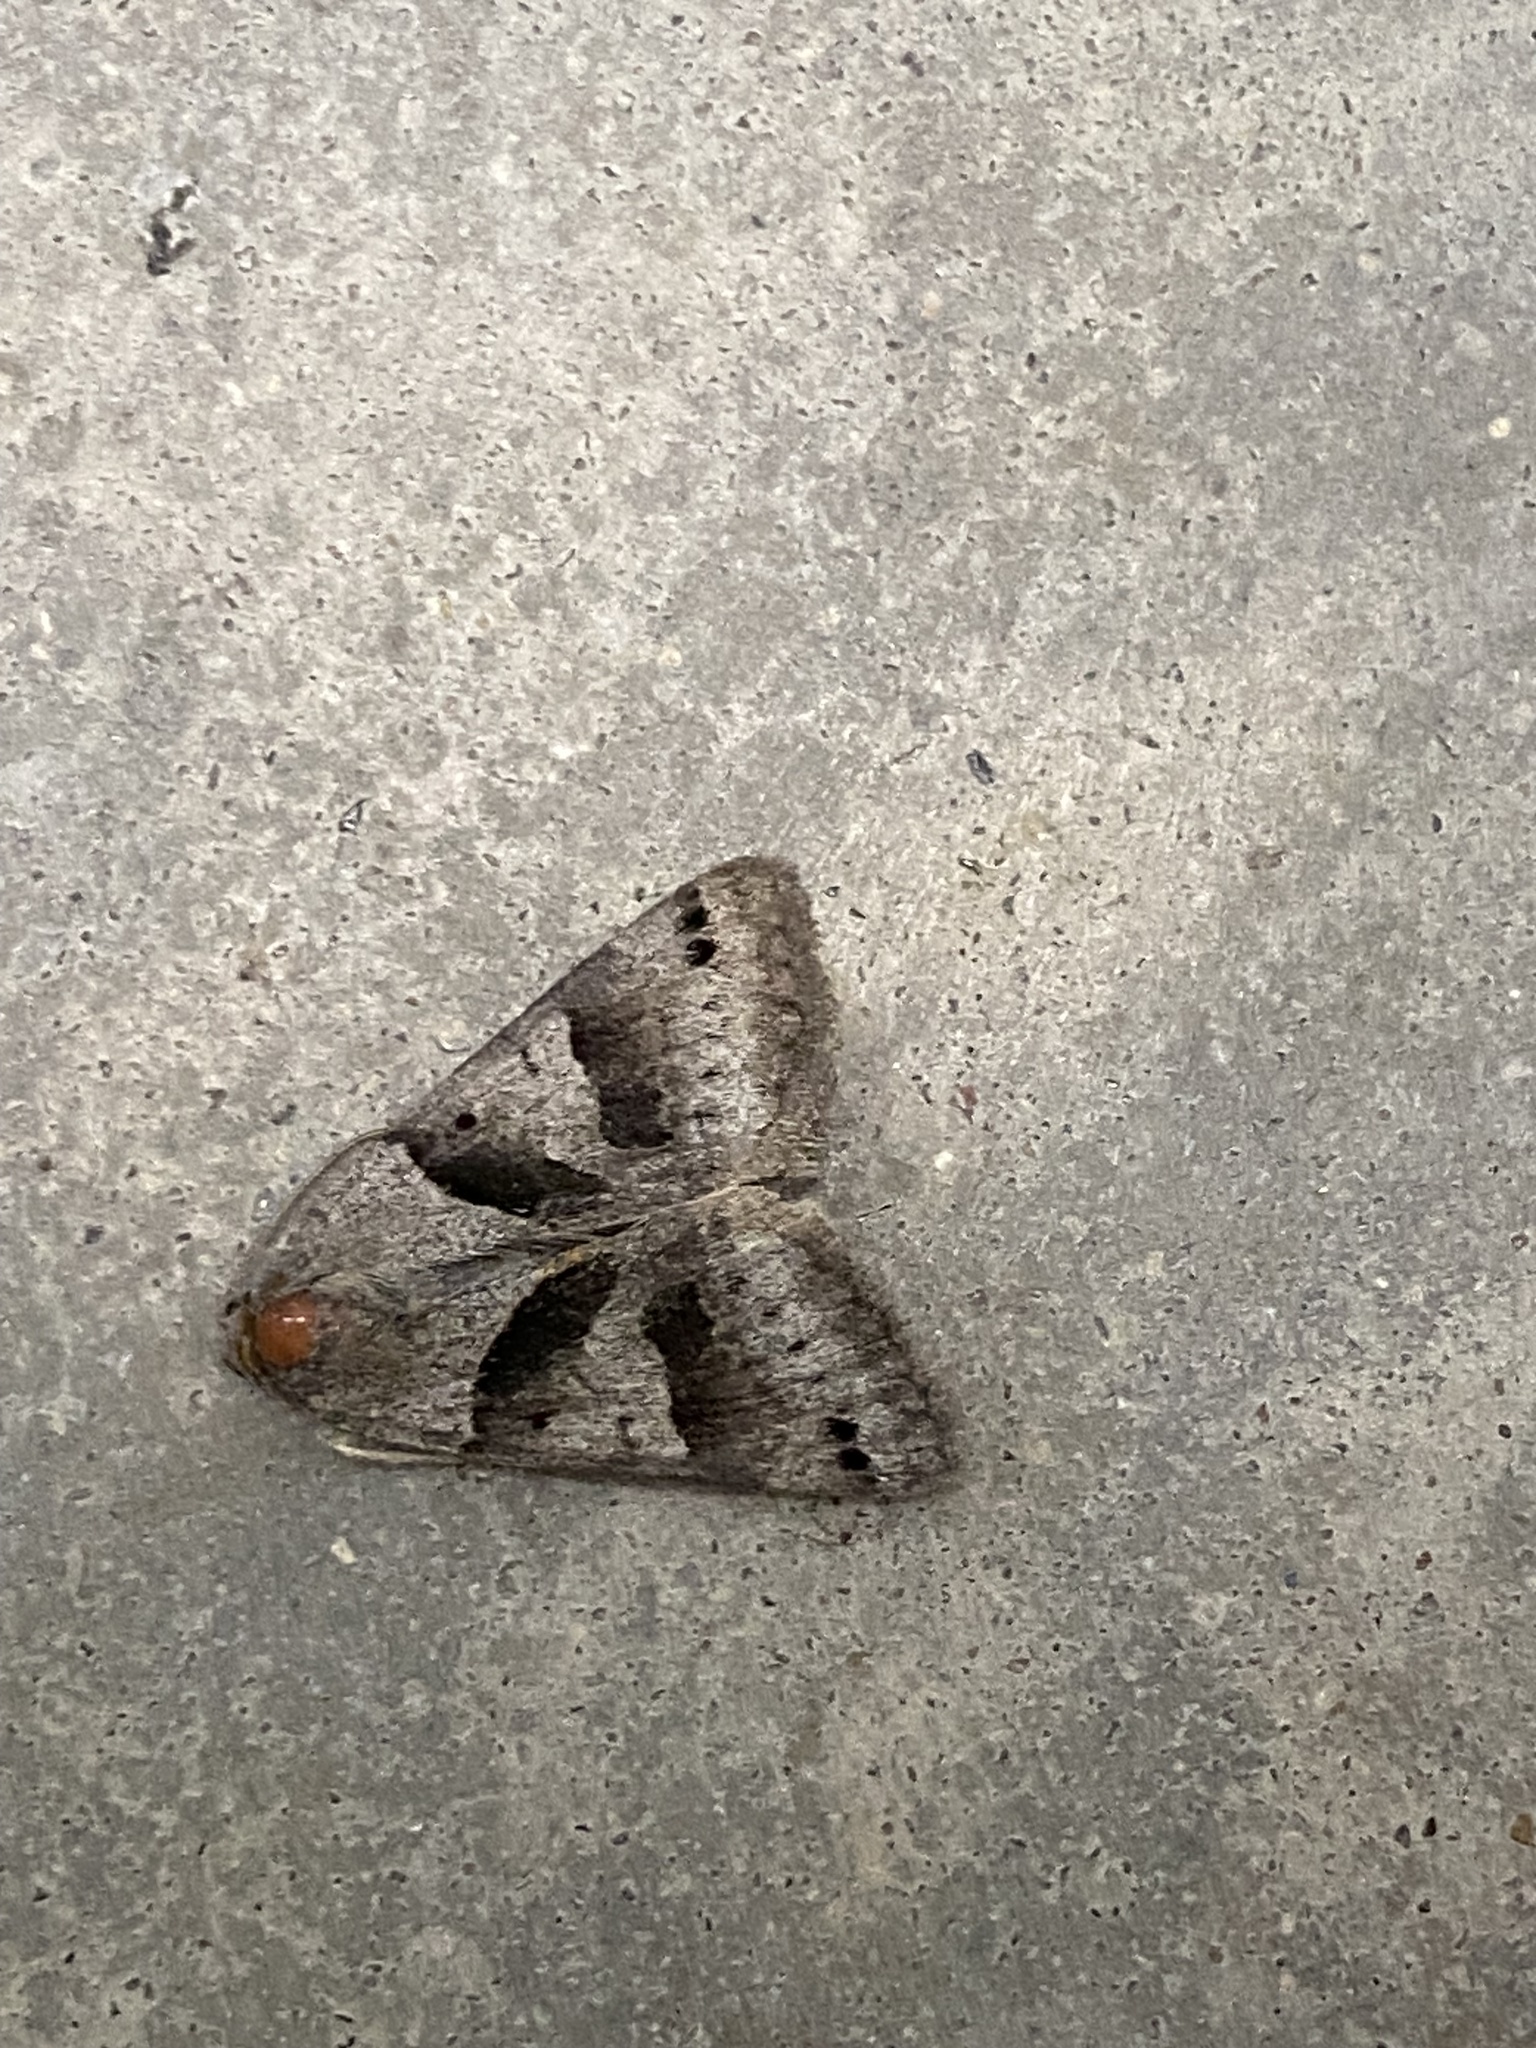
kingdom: Animalia
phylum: Arthropoda
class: Insecta
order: Lepidoptera
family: Erebidae
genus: Caenurgina
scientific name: Caenurgina erechtea
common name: Forage looper moth
